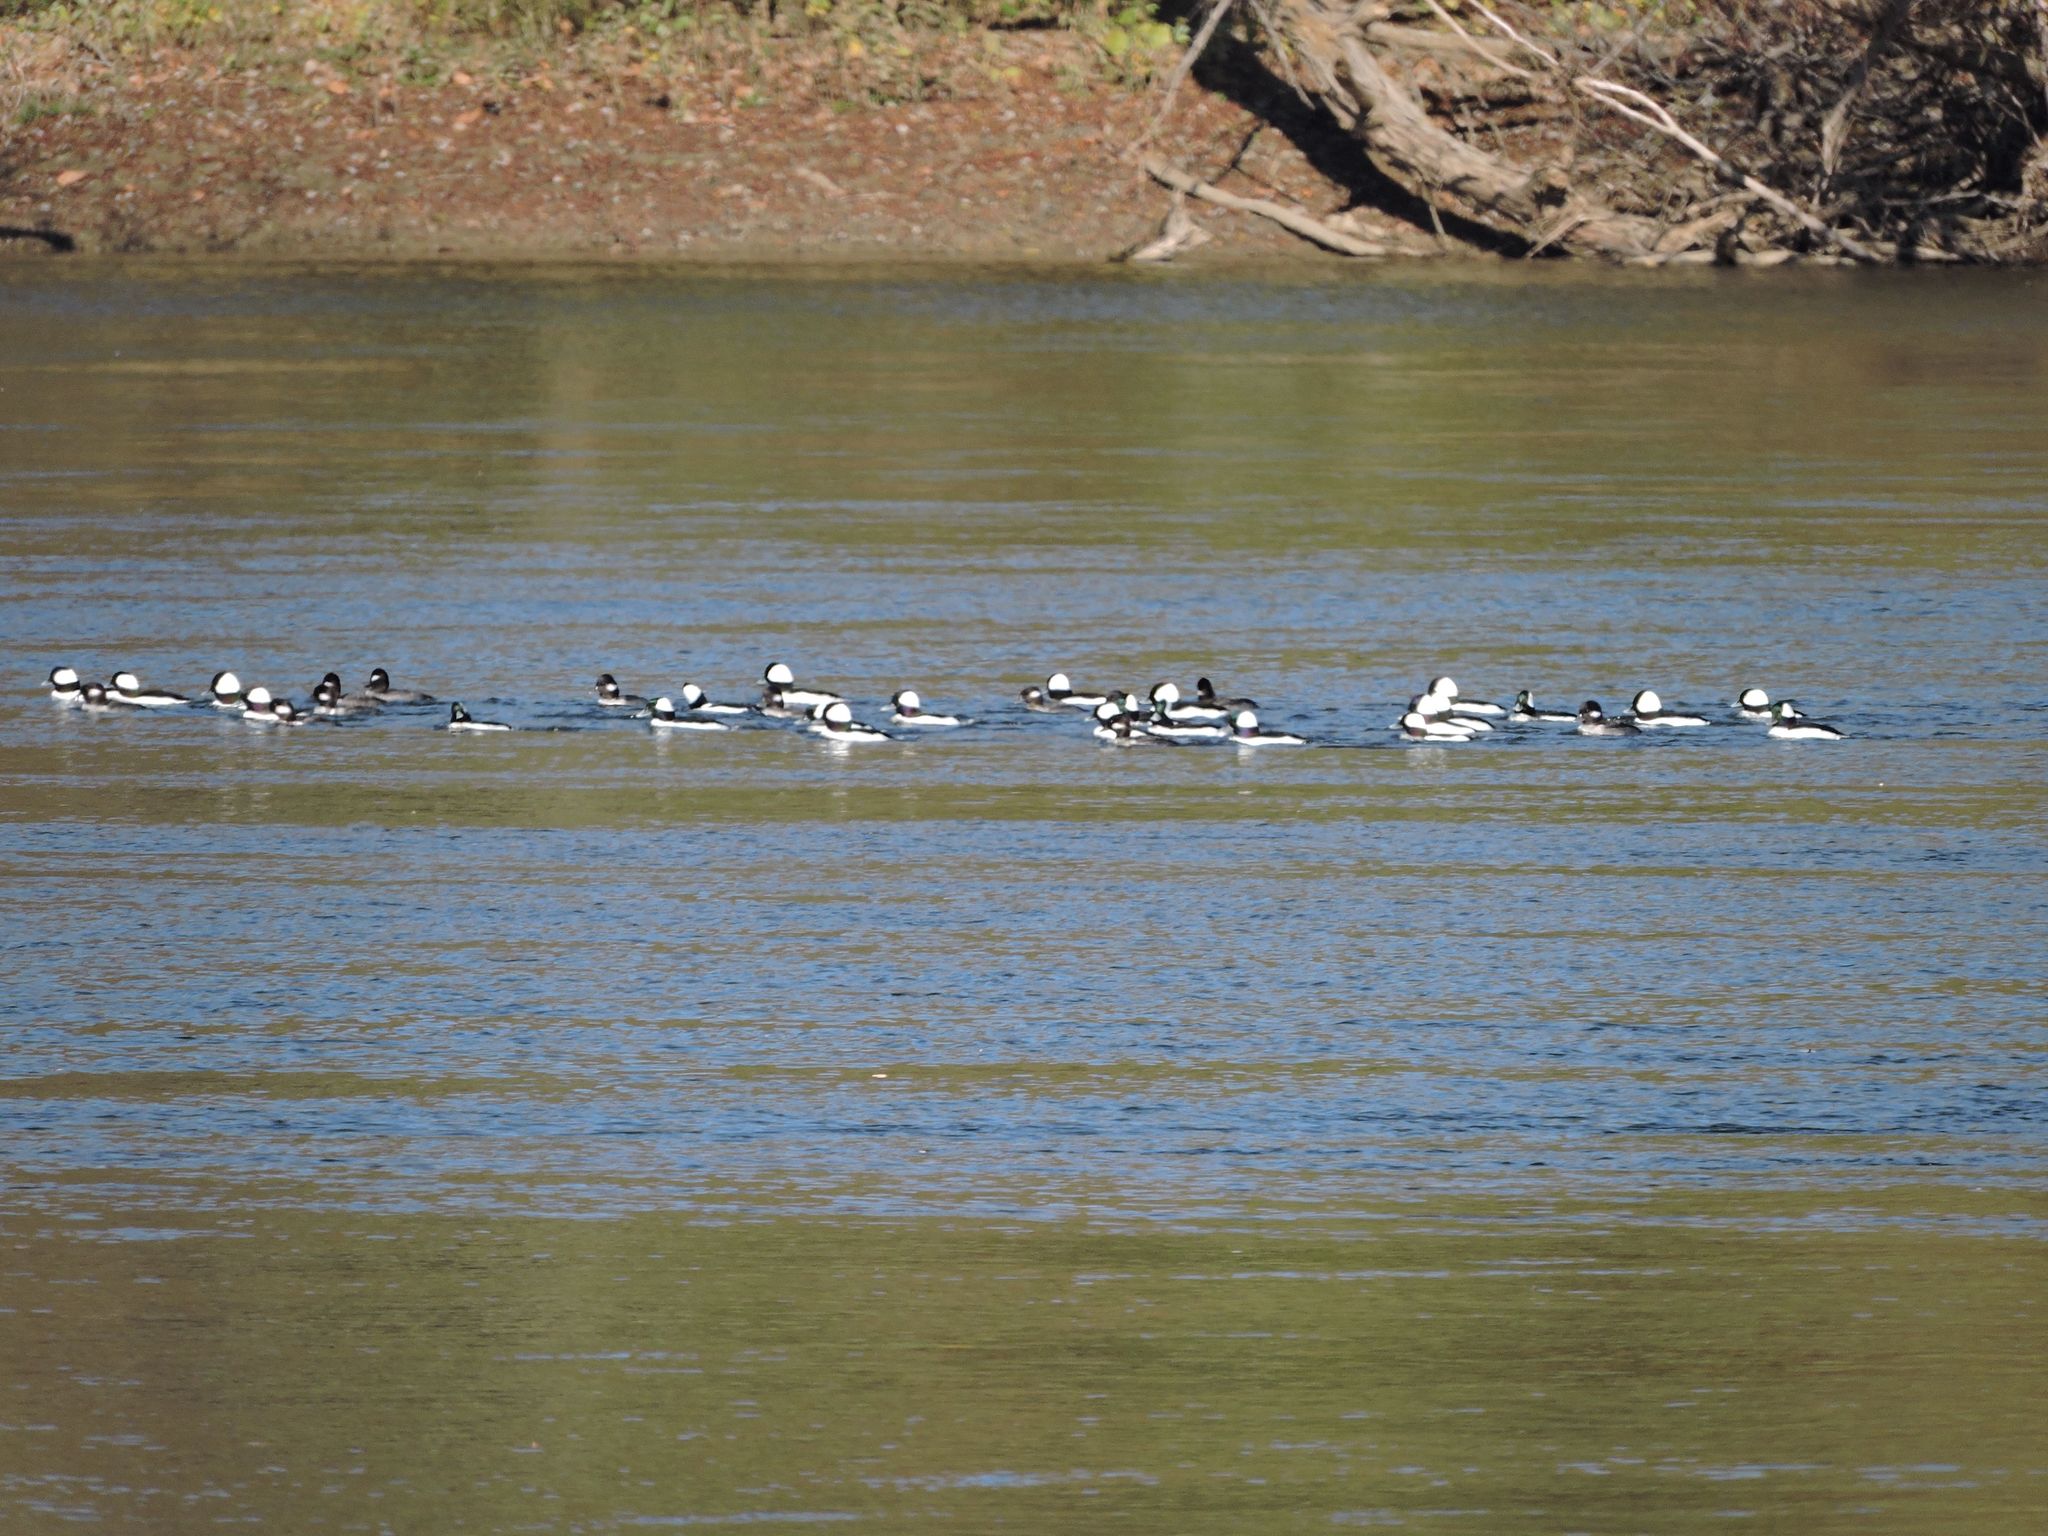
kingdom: Animalia
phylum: Chordata
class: Aves
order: Anseriformes
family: Anatidae
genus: Bucephala
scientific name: Bucephala albeola
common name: Bufflehead
